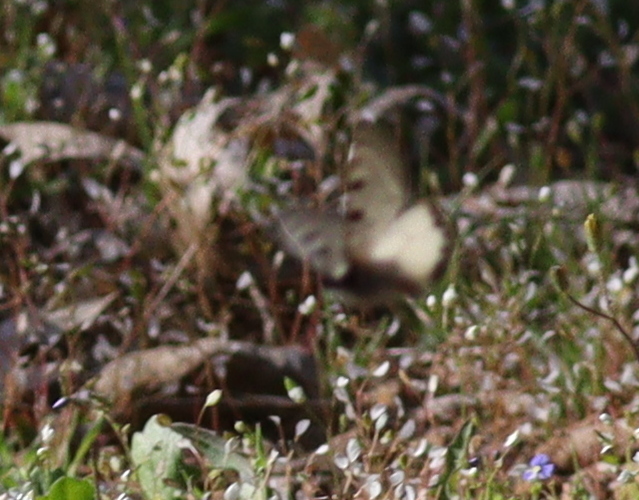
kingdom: Animalia
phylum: Arthropoda
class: Insecta
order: Lepidoptera
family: Papilionidae
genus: Archon
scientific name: Archon apollinus
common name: False apollo
